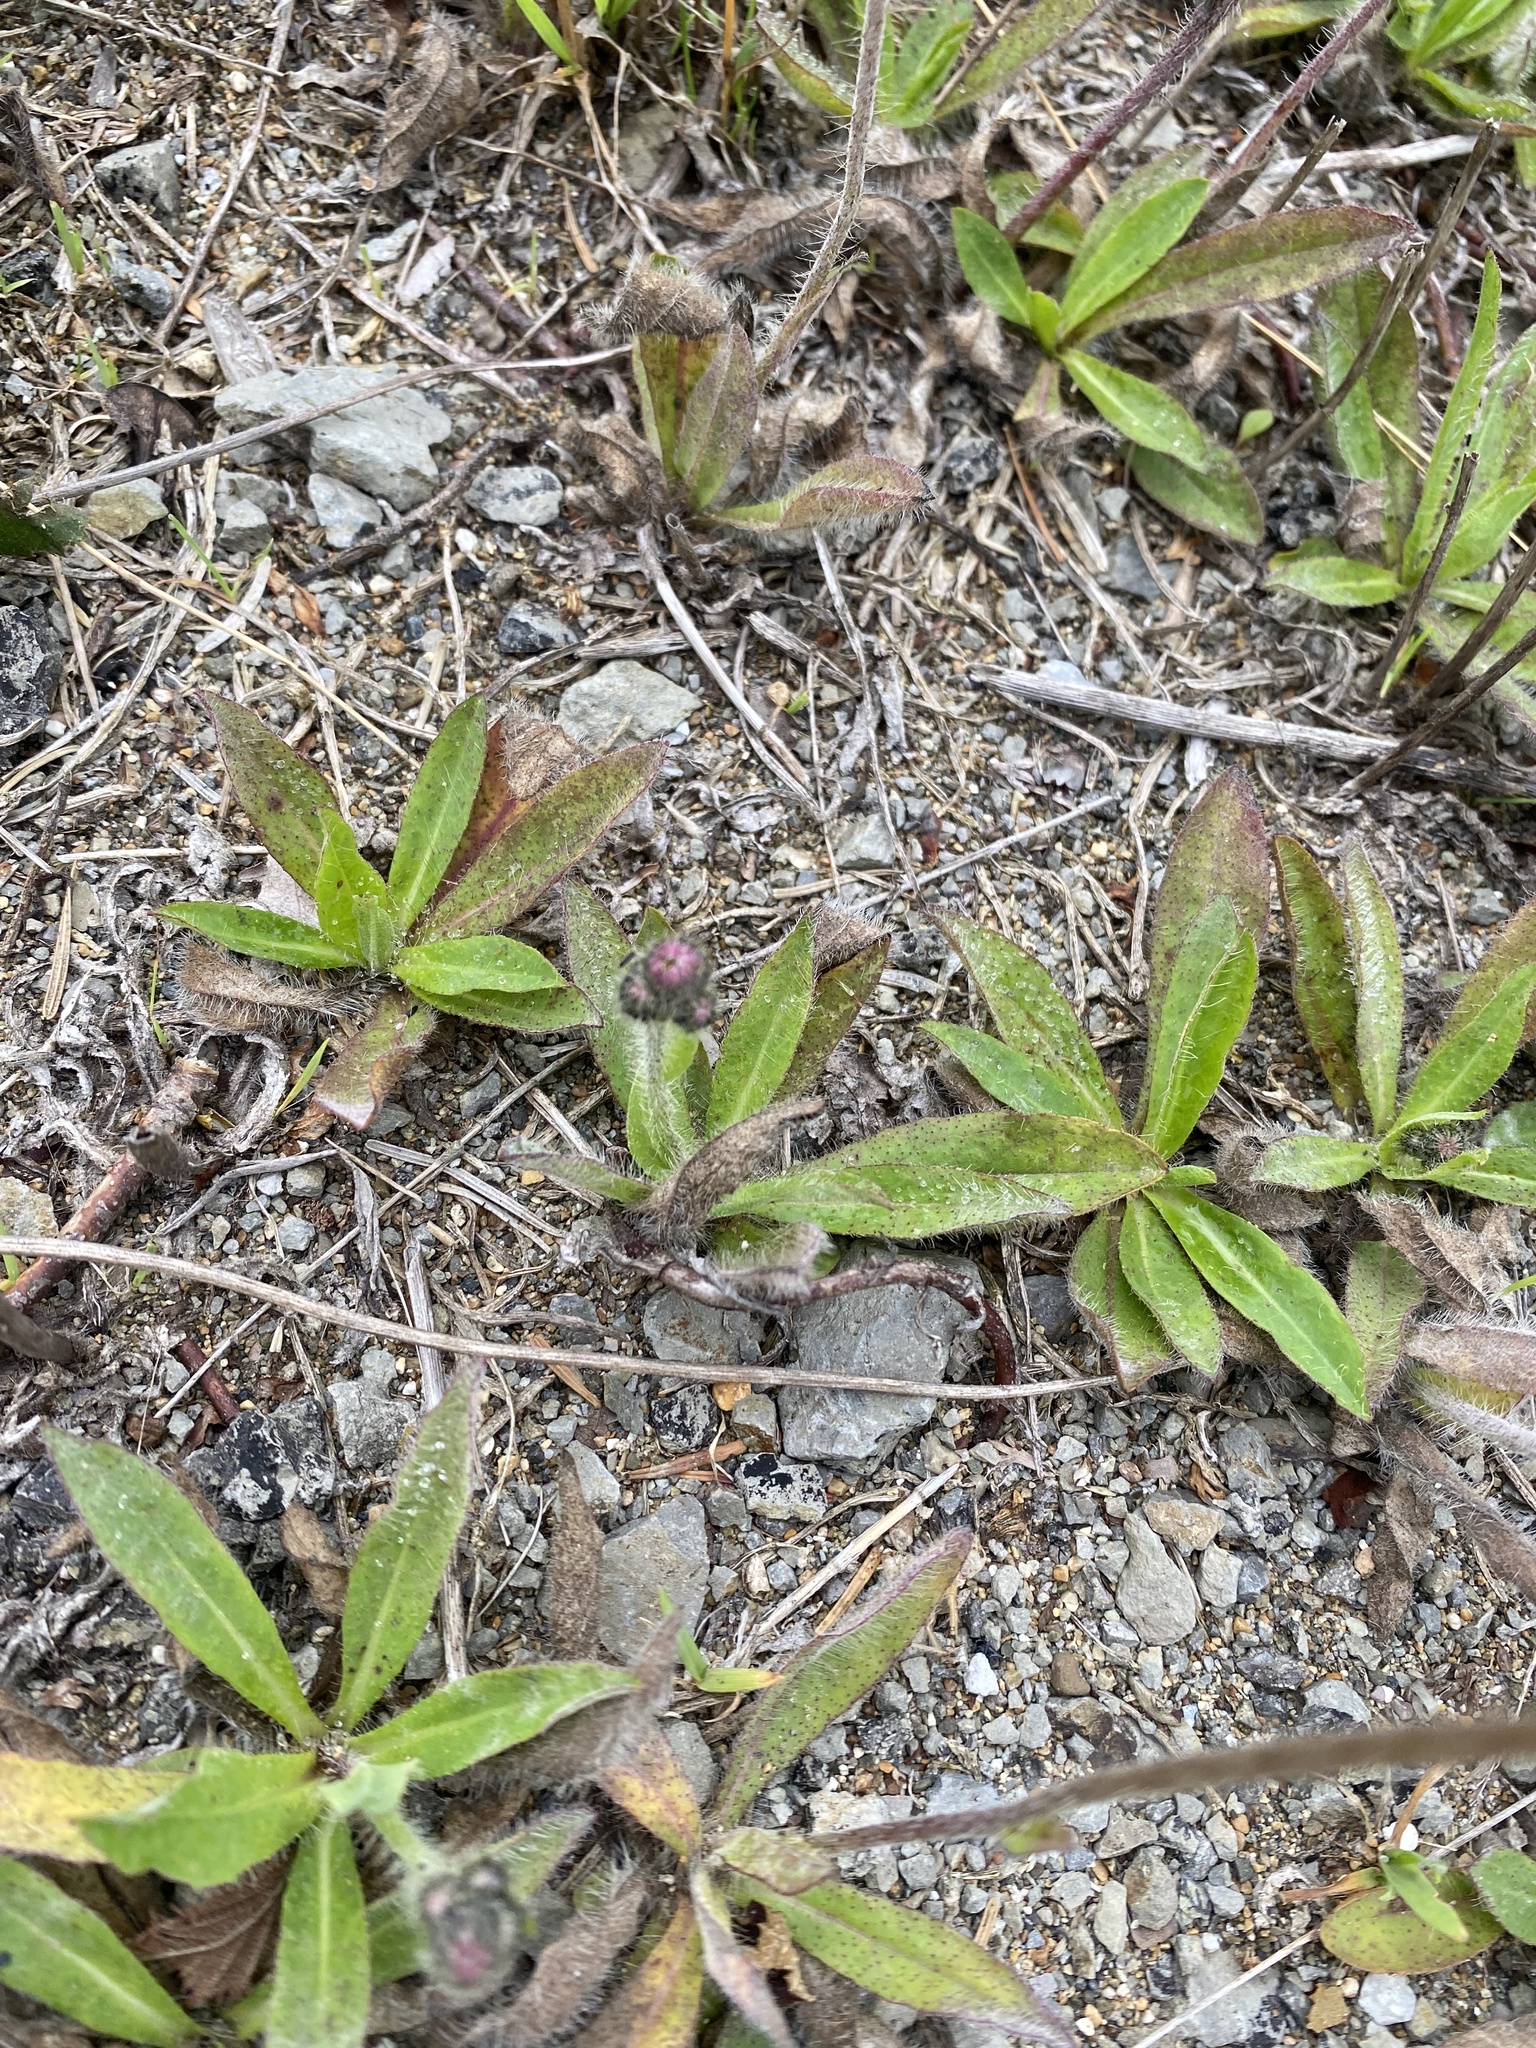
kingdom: Plantae
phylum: Tracheophyta
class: Magnoliopsida
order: Asterales
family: Asteraceae
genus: Pilosella
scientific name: Pilosella aurantiaca
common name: Fox-and-cubs
